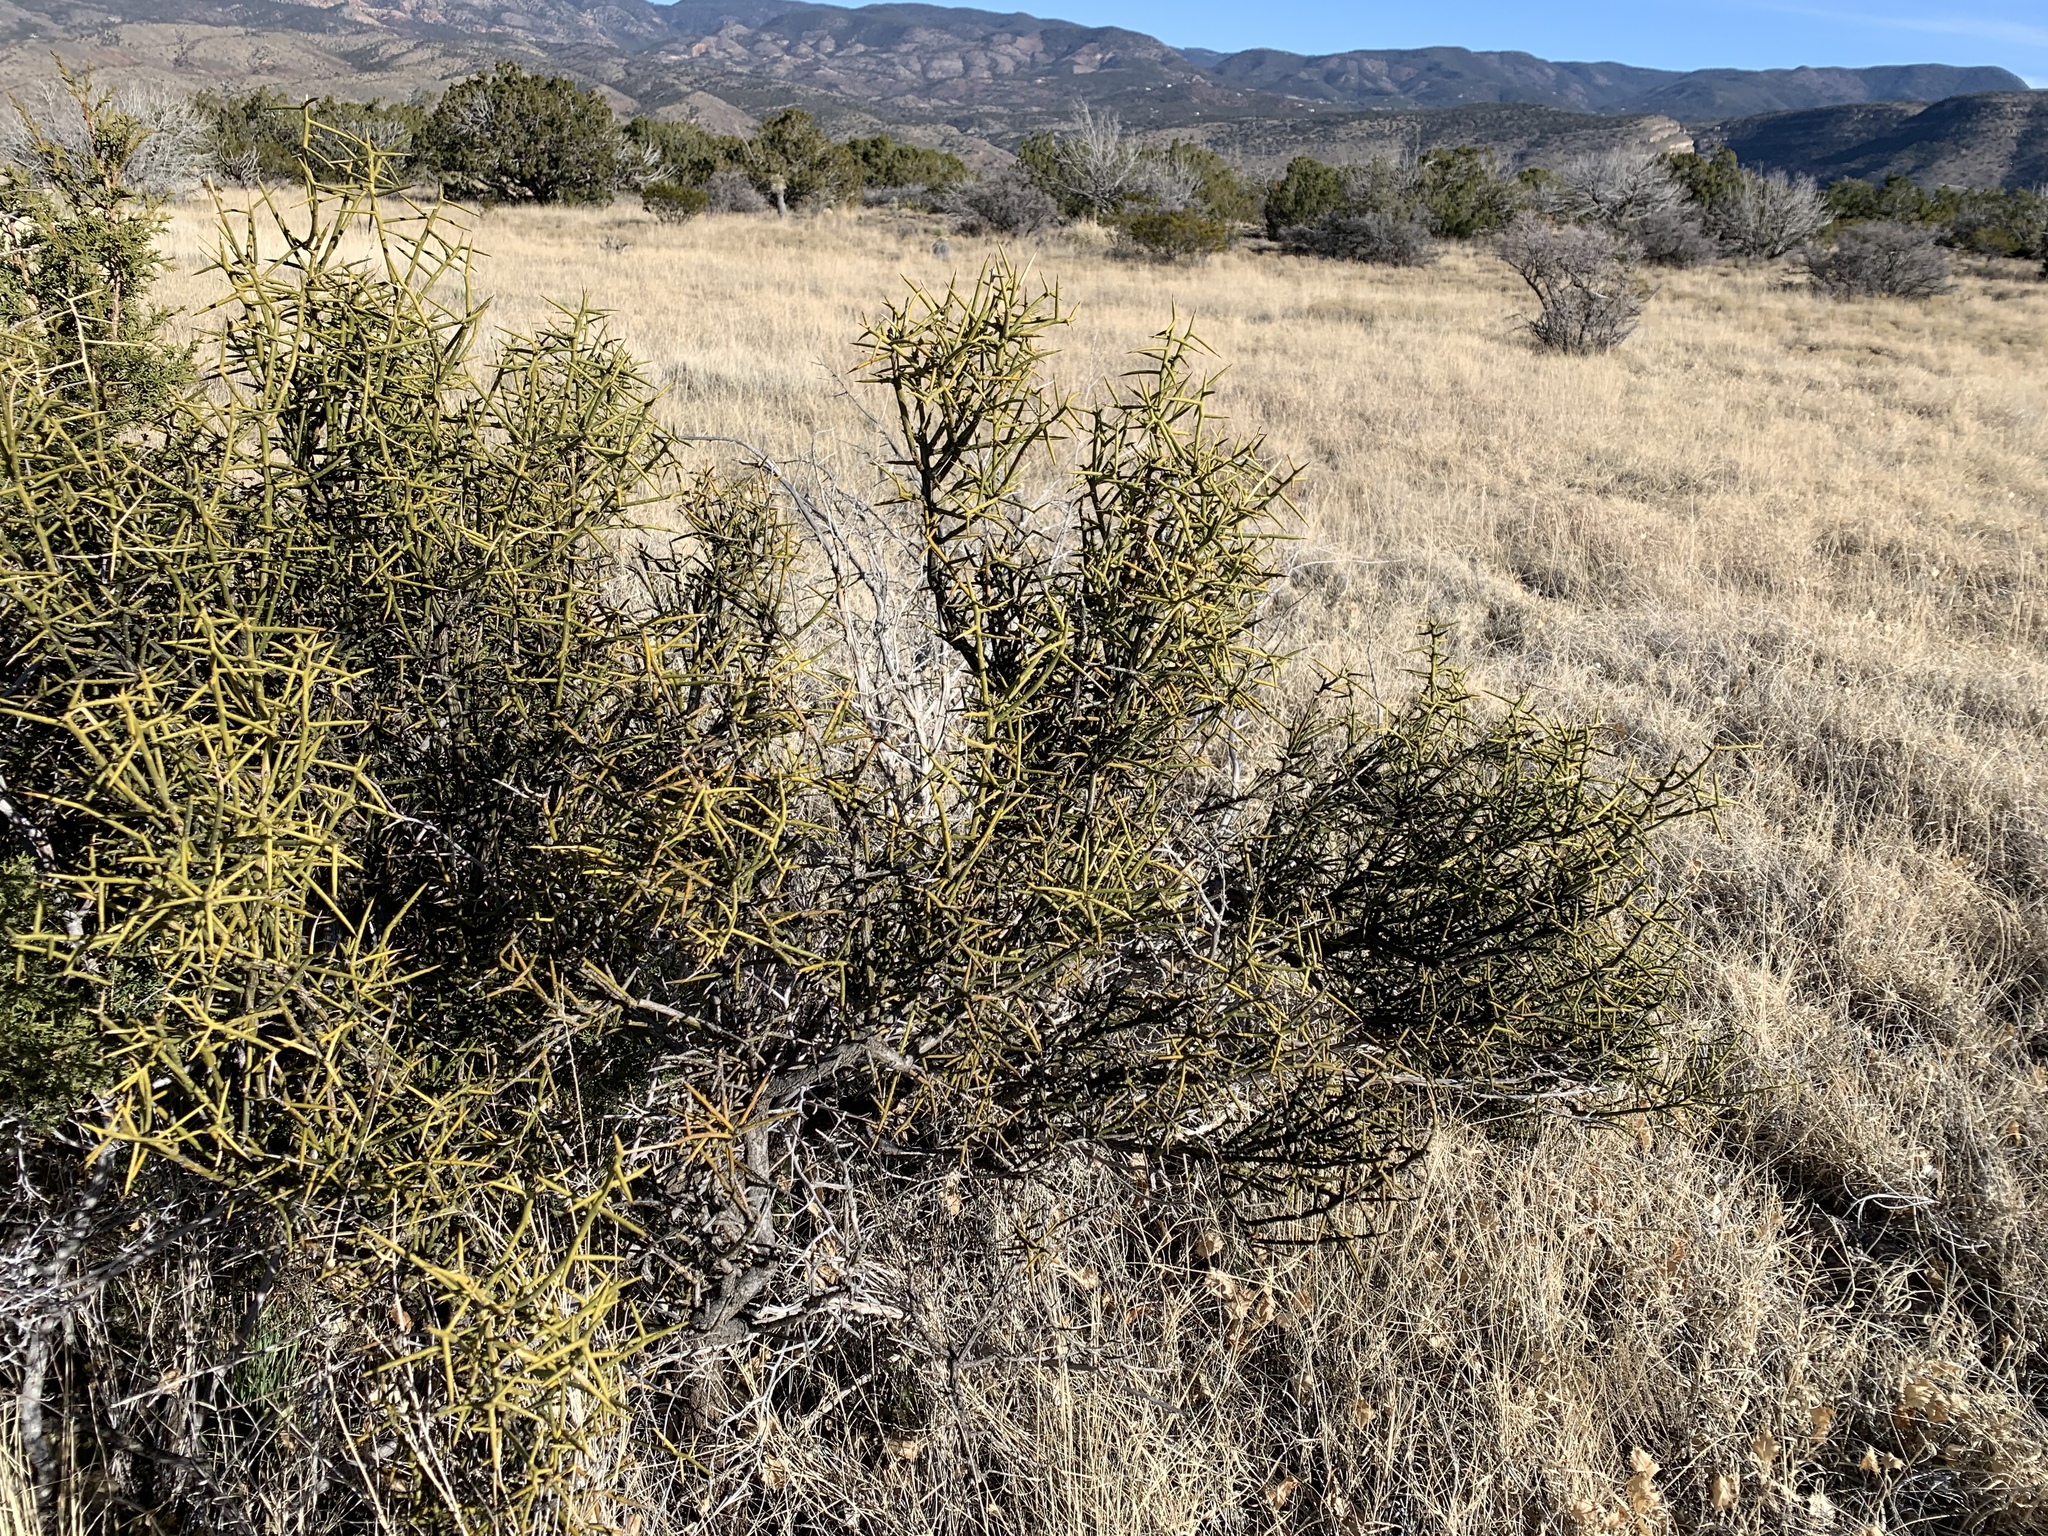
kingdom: Plantae
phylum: Tracheophyta
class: Magnoliopsida
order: Brassicales
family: Koeberliniaceae
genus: Koeberlinia
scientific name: Koeberlinia spinosa
